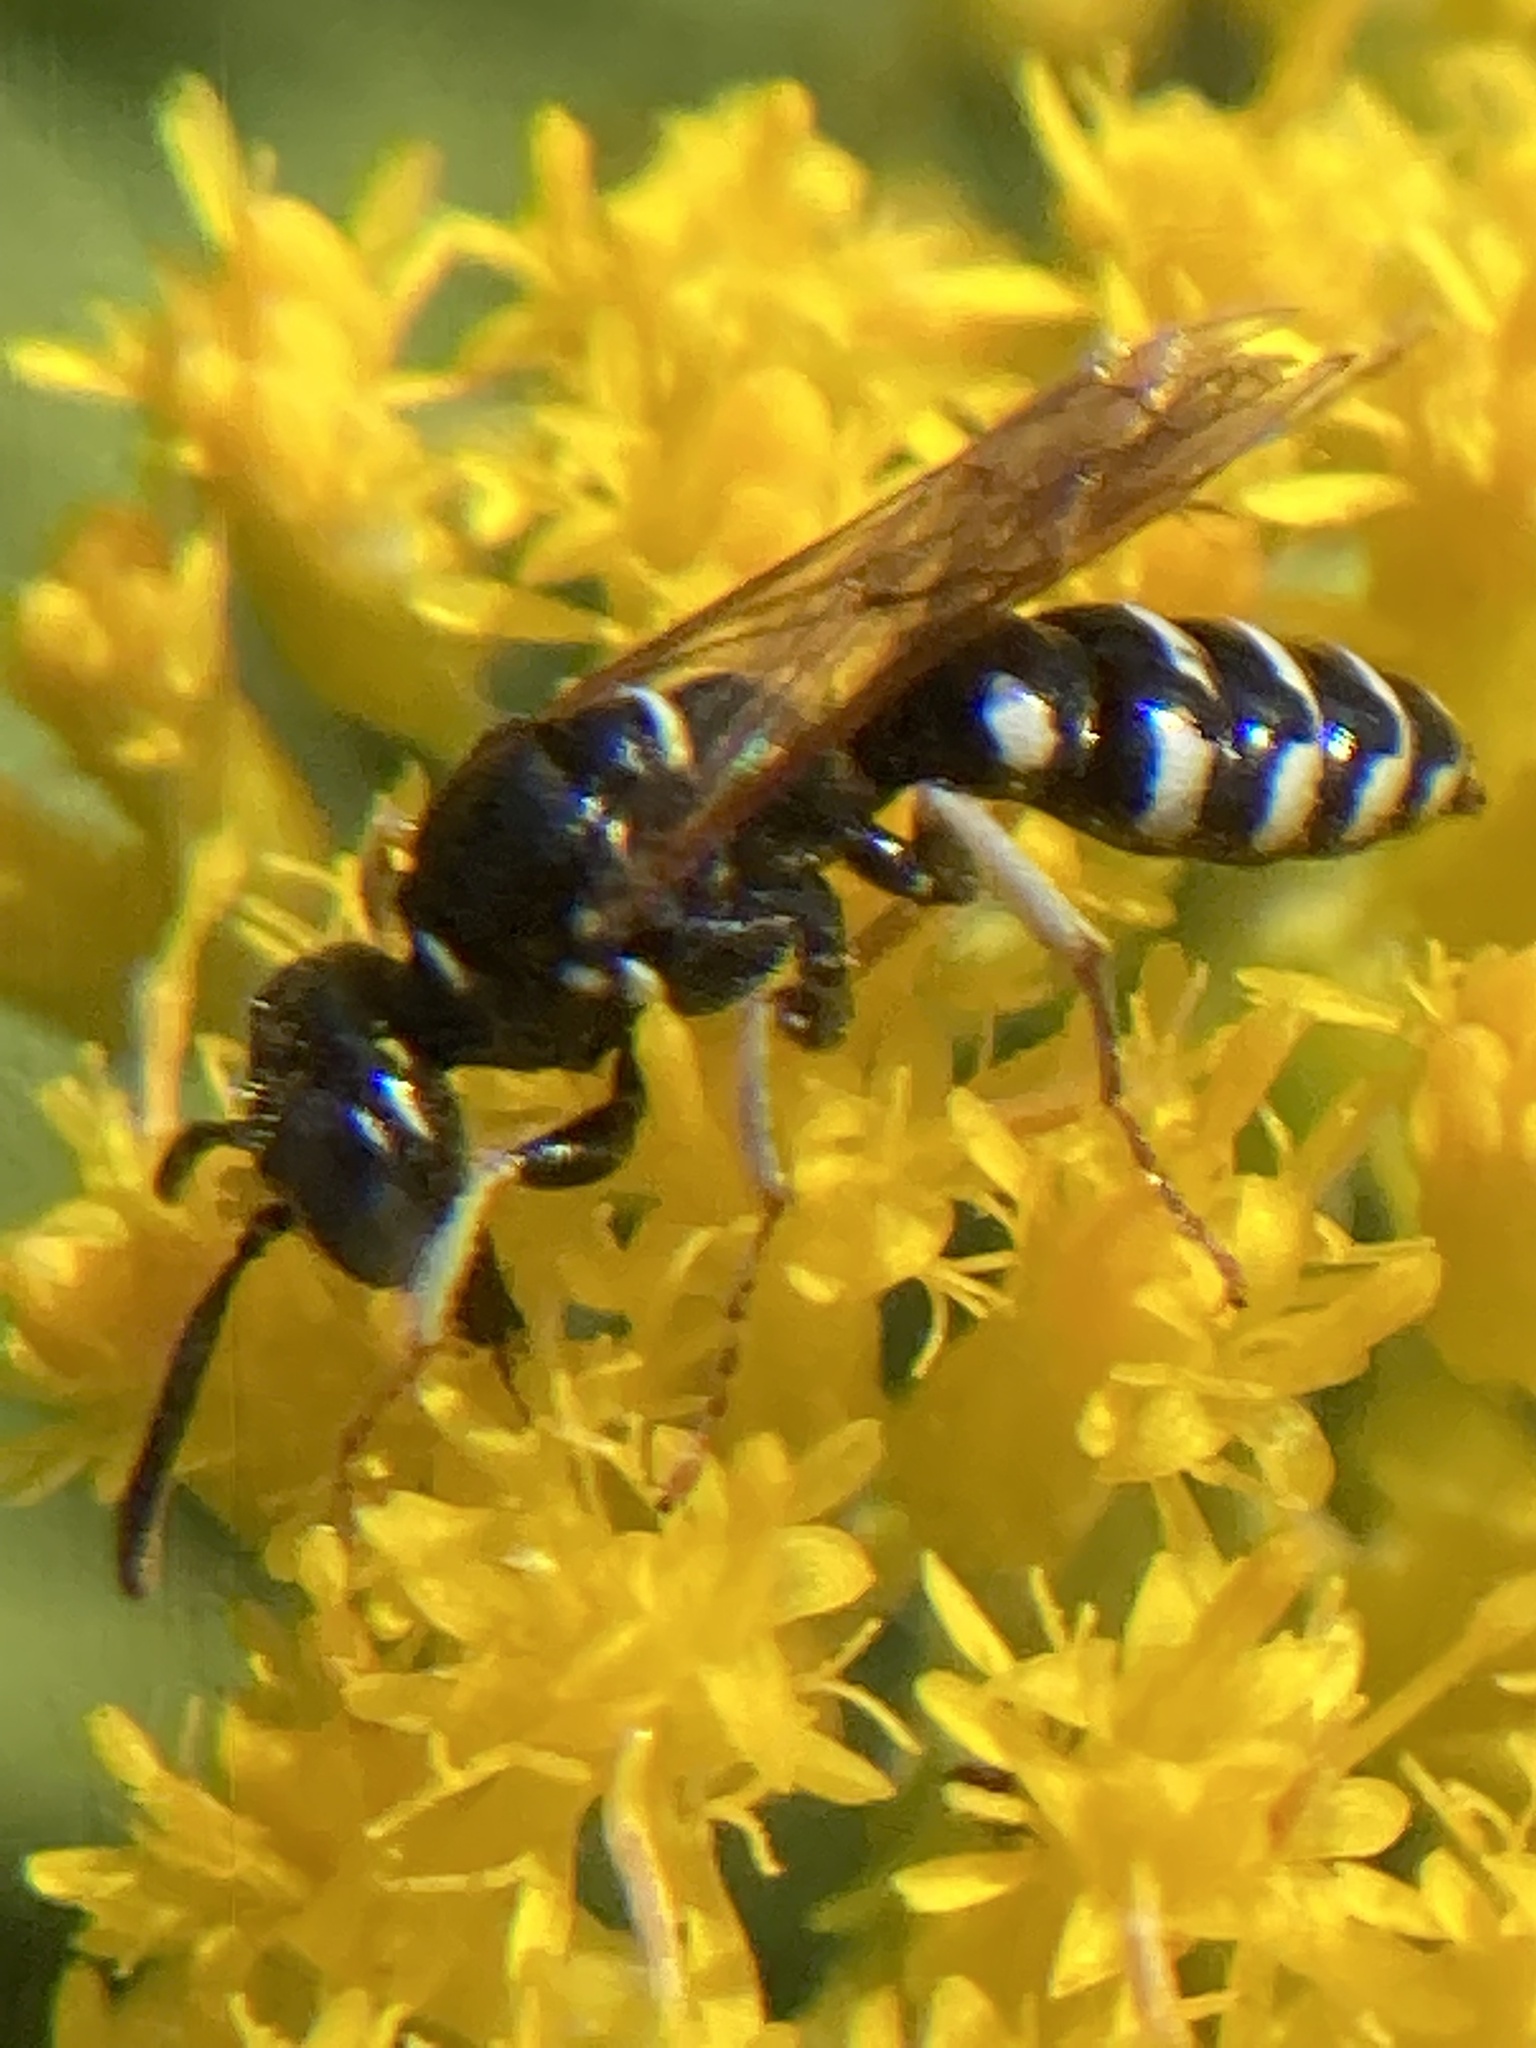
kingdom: Animalia
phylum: Arthropoda
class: Insecta
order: Hymenoptera
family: Crabronidae
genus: Philanthus
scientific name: Philanthus politus
